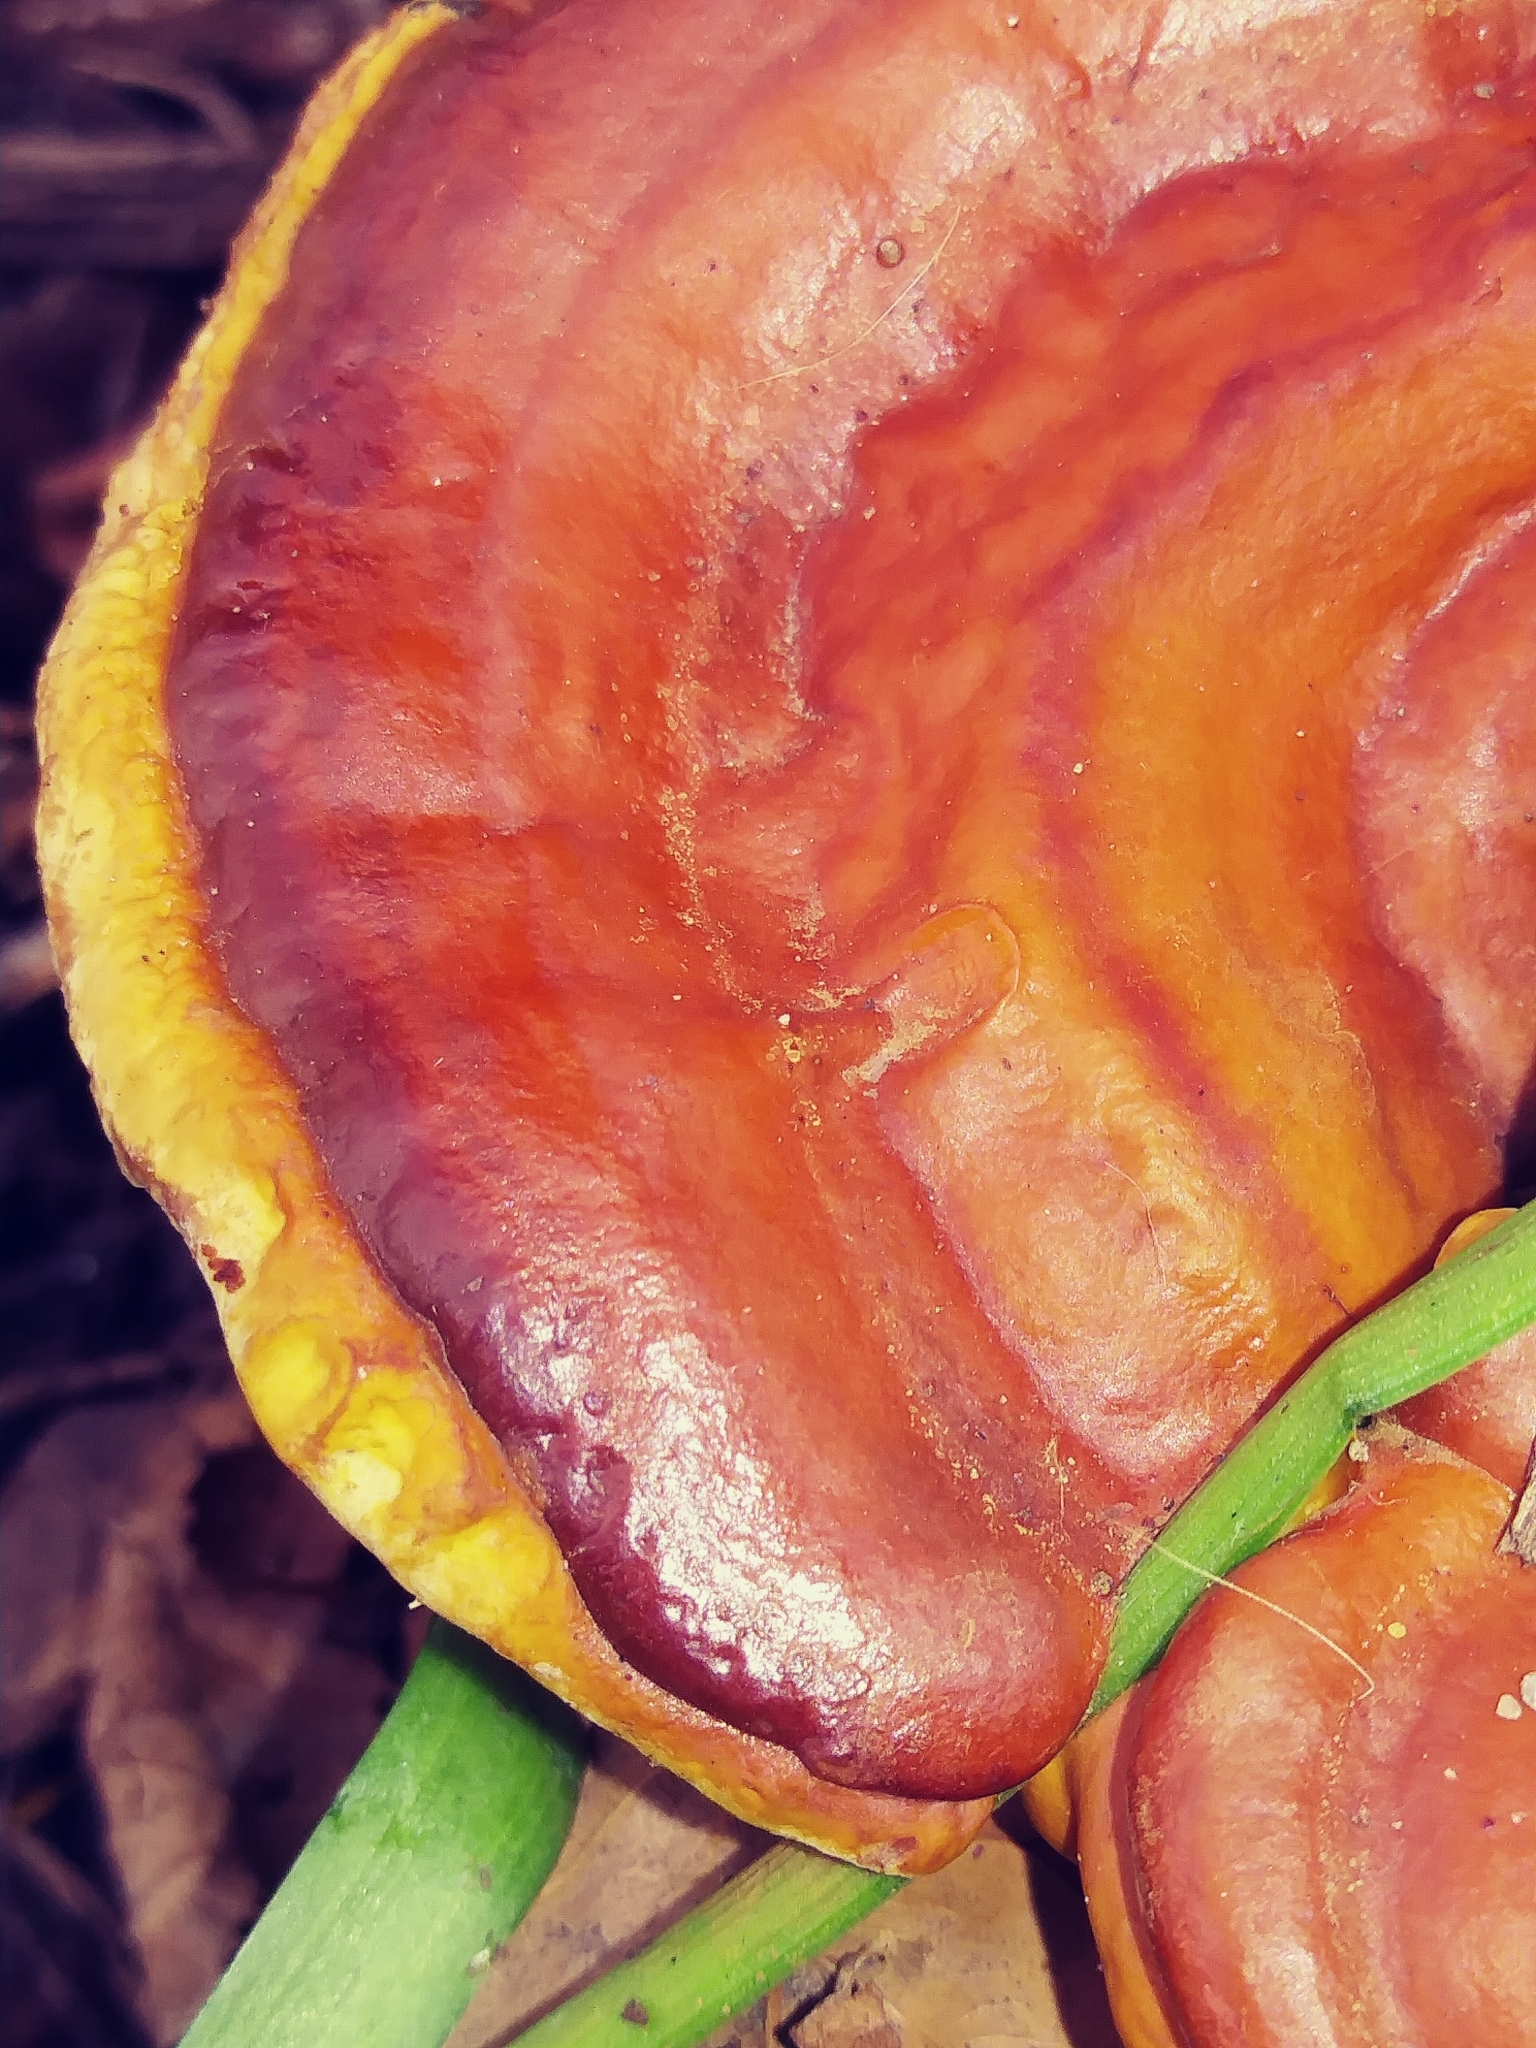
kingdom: Fungi
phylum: Basidiomycota
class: Agaricomycetes
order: Polyporales
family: Polyporaceae
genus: Ganoderma
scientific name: Ganoderma tsugae
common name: Hemlock varnish shelf
